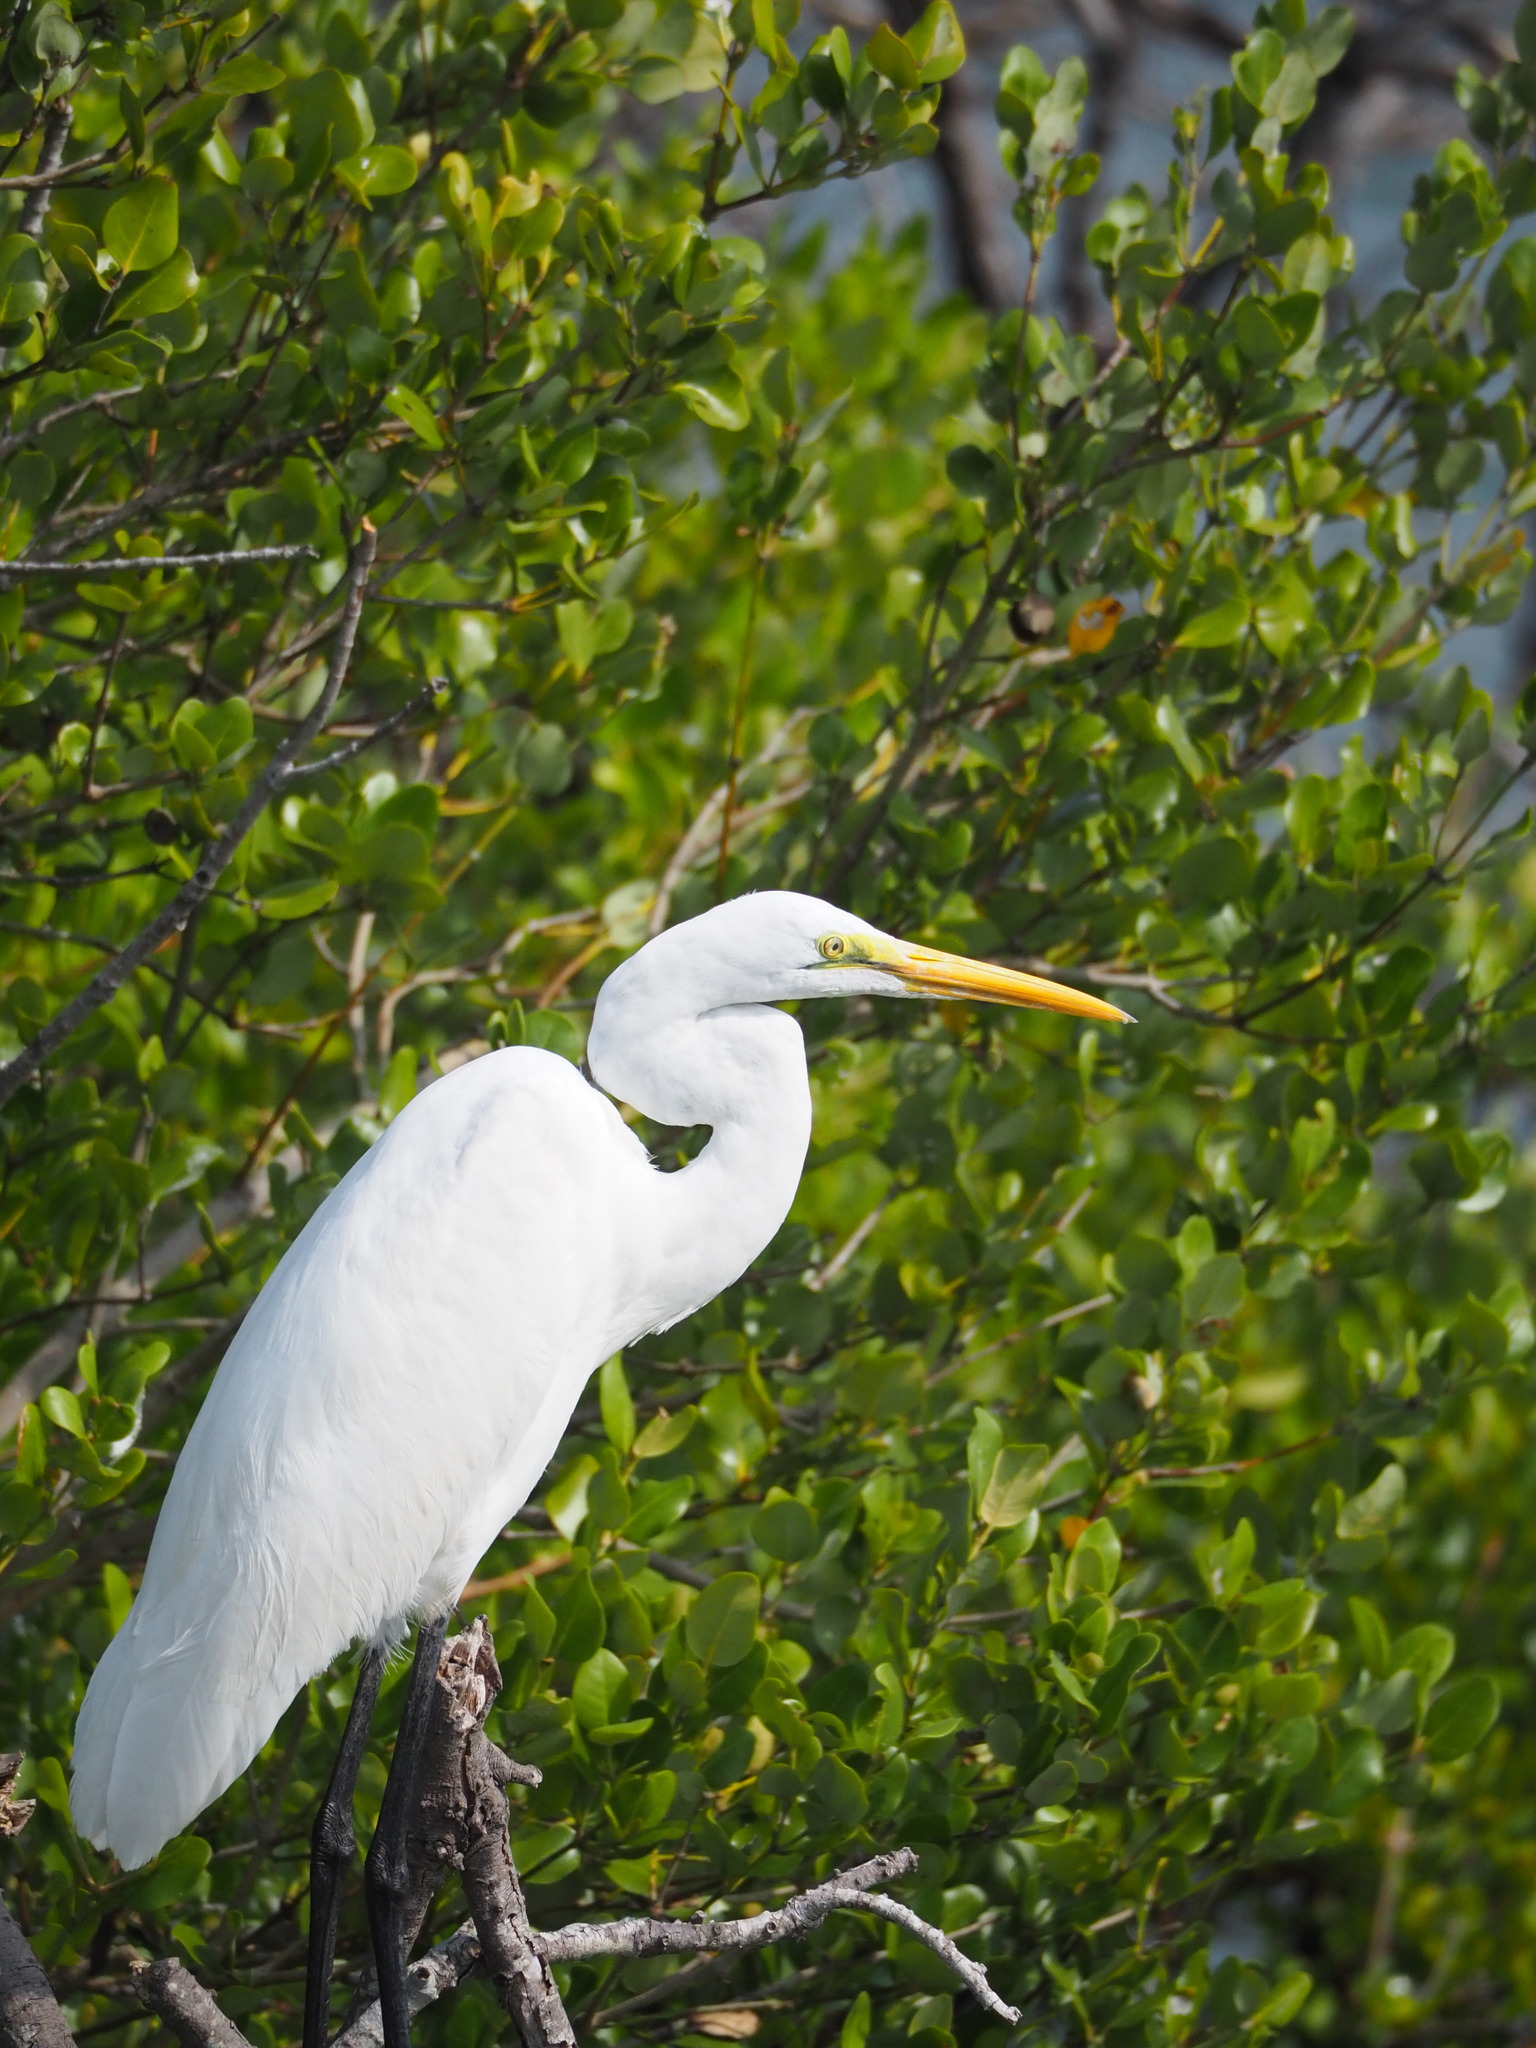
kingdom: Animalia
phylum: Chordata
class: Aves
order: Pelecaniformes
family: Ardeidae
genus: Ardea
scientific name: Ardea alba
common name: Great egret
